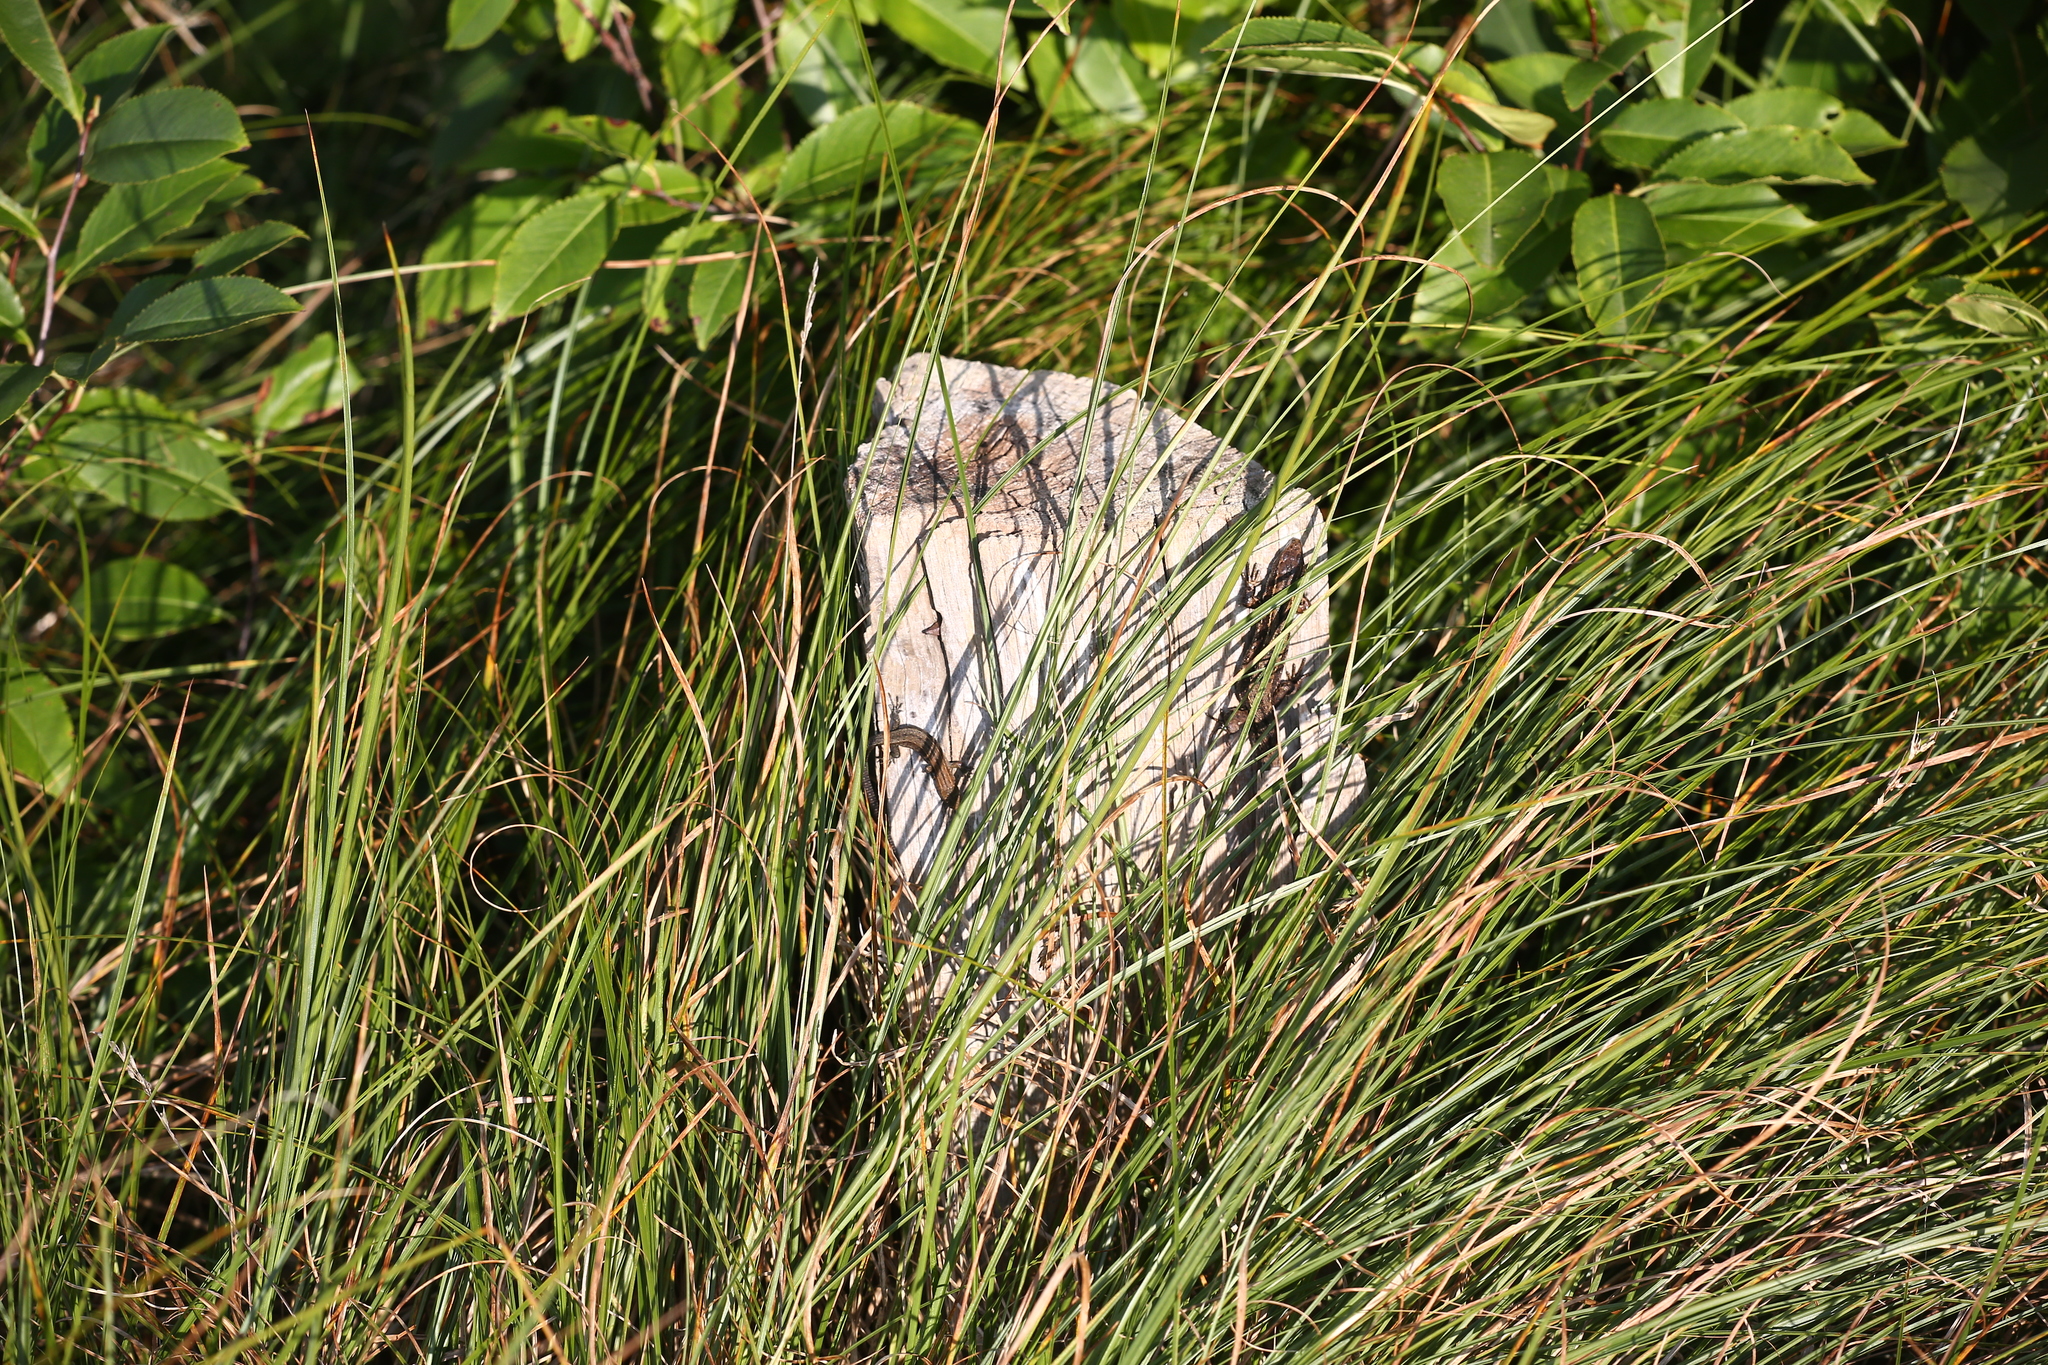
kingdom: Animalia
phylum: Chordata
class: Squamata
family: Lacertidae
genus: Zootoca
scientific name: Zootoca vivipara
